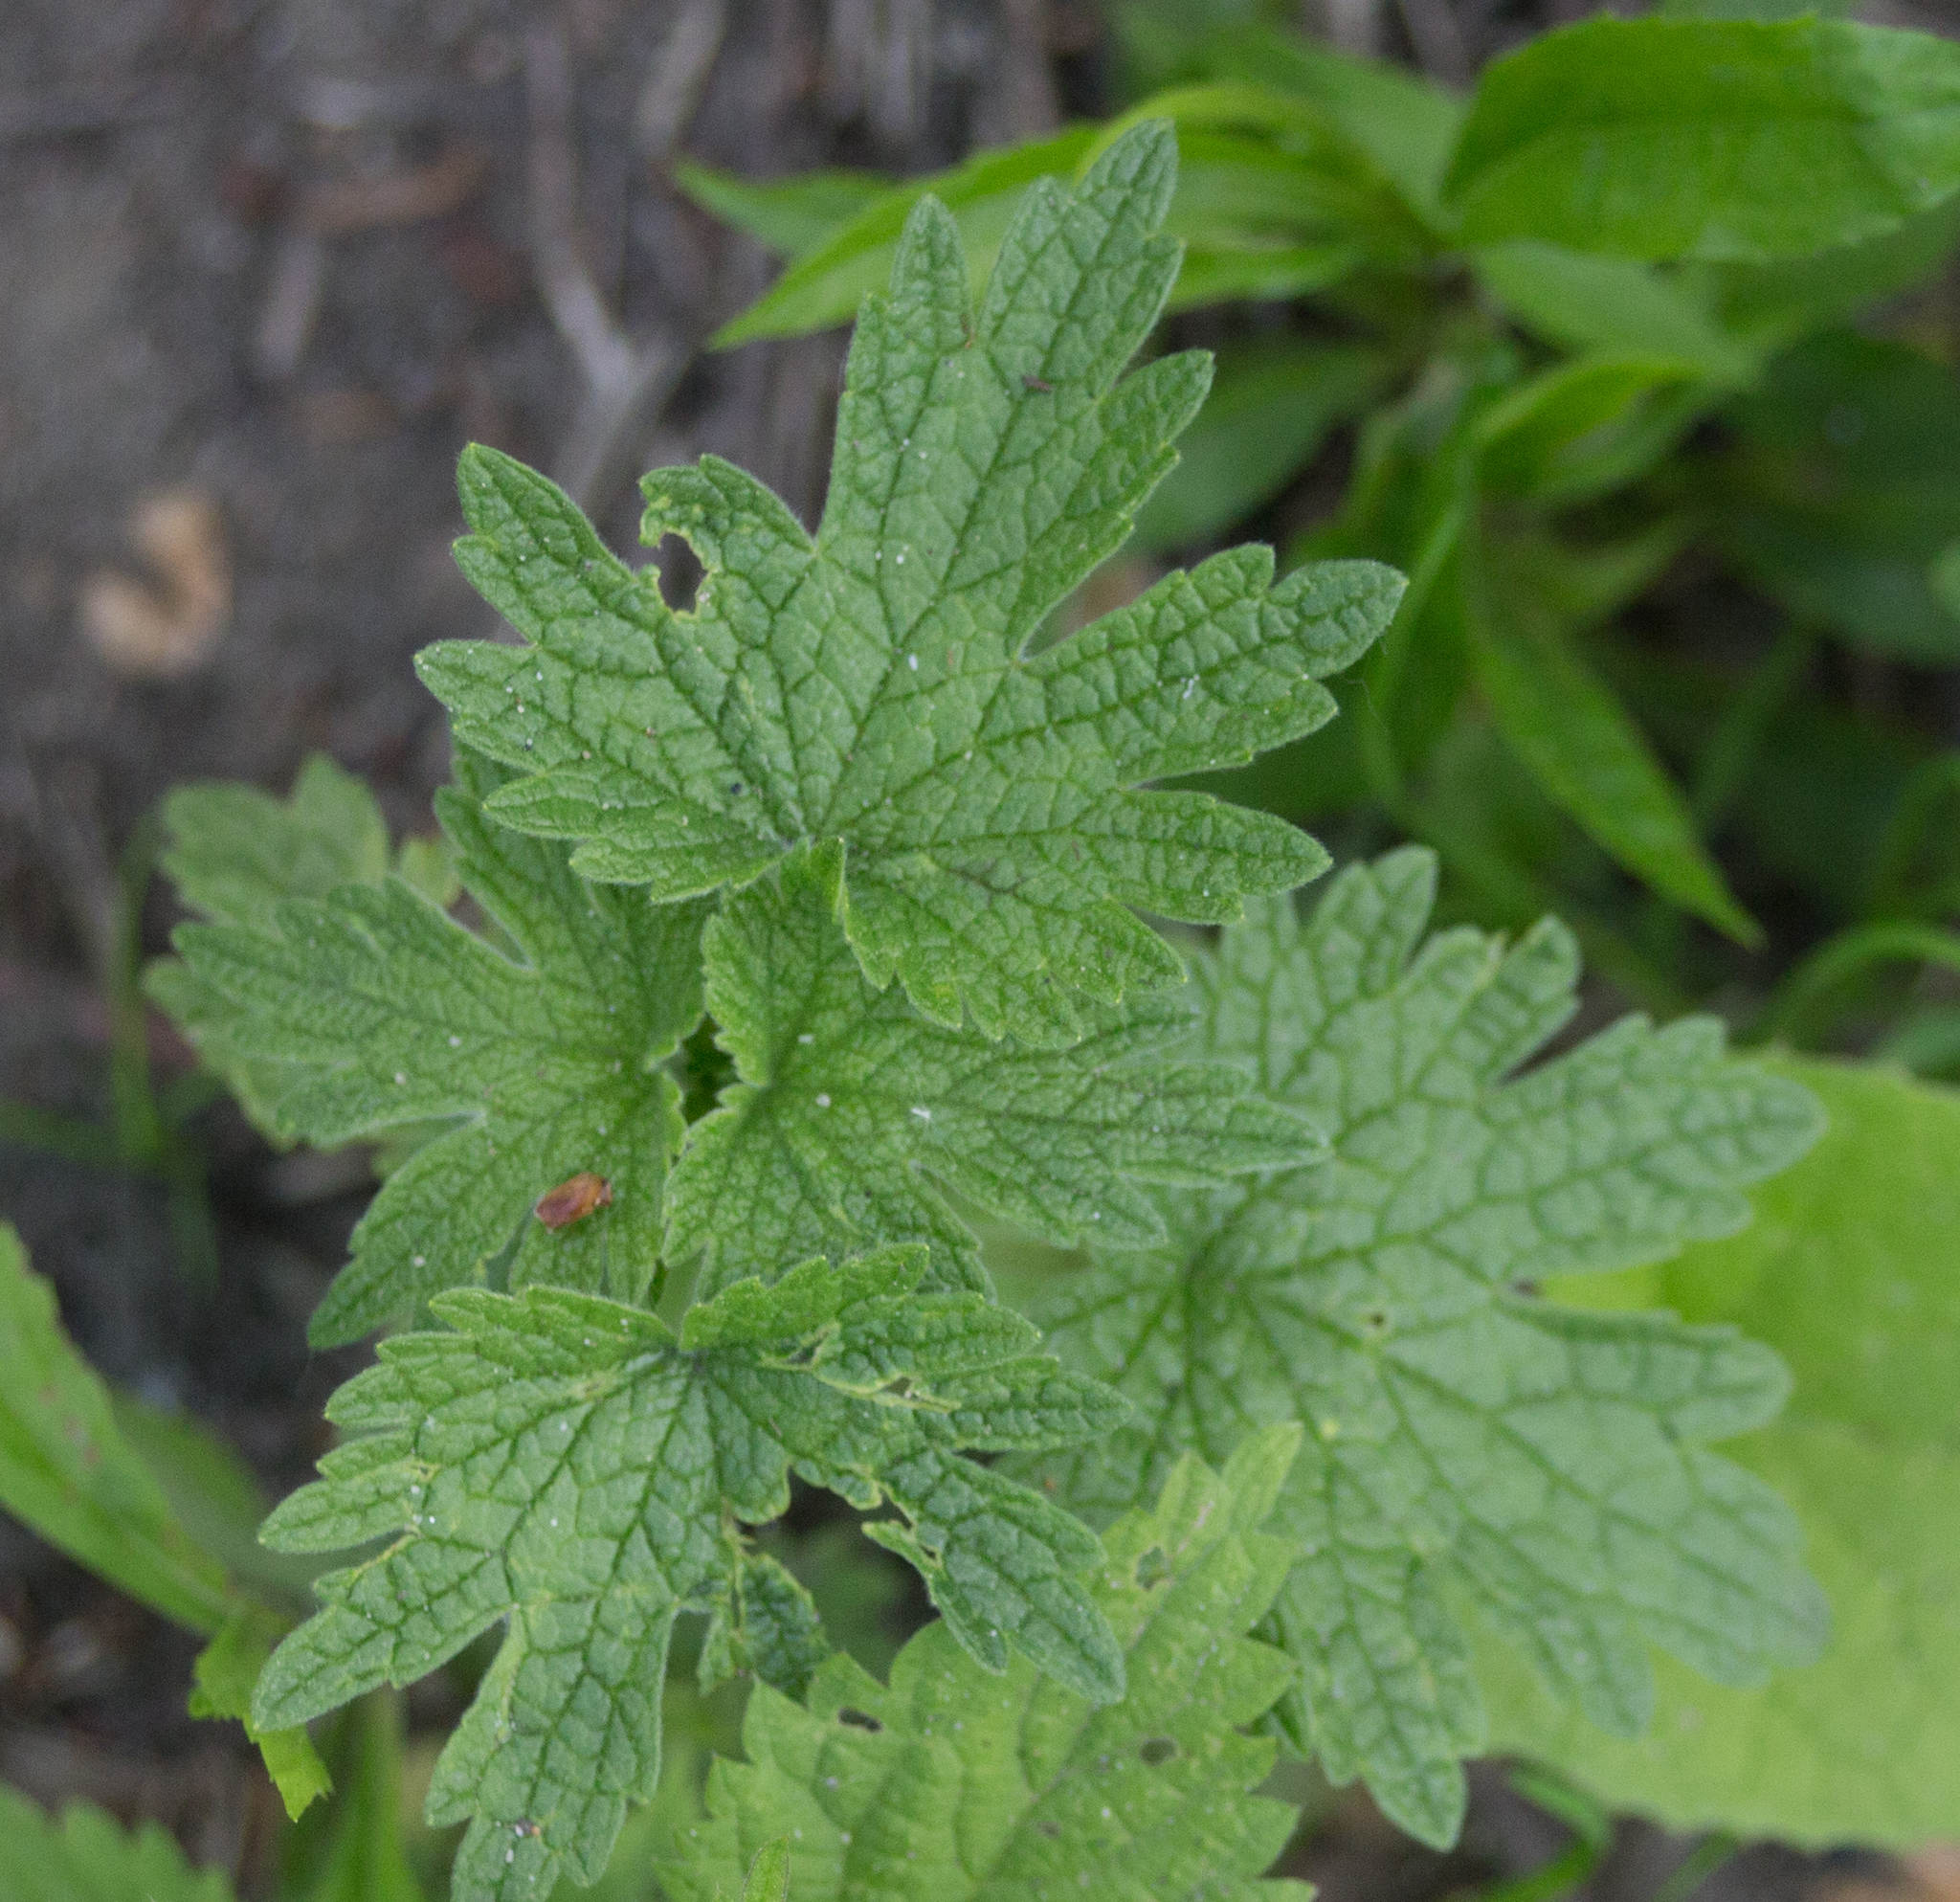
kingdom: Plantae
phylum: Tracheophyta
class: Magnoliopsida
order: Lamiales
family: Lamiaceae
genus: Leonurus
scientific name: Leonurus quinquelobatus
